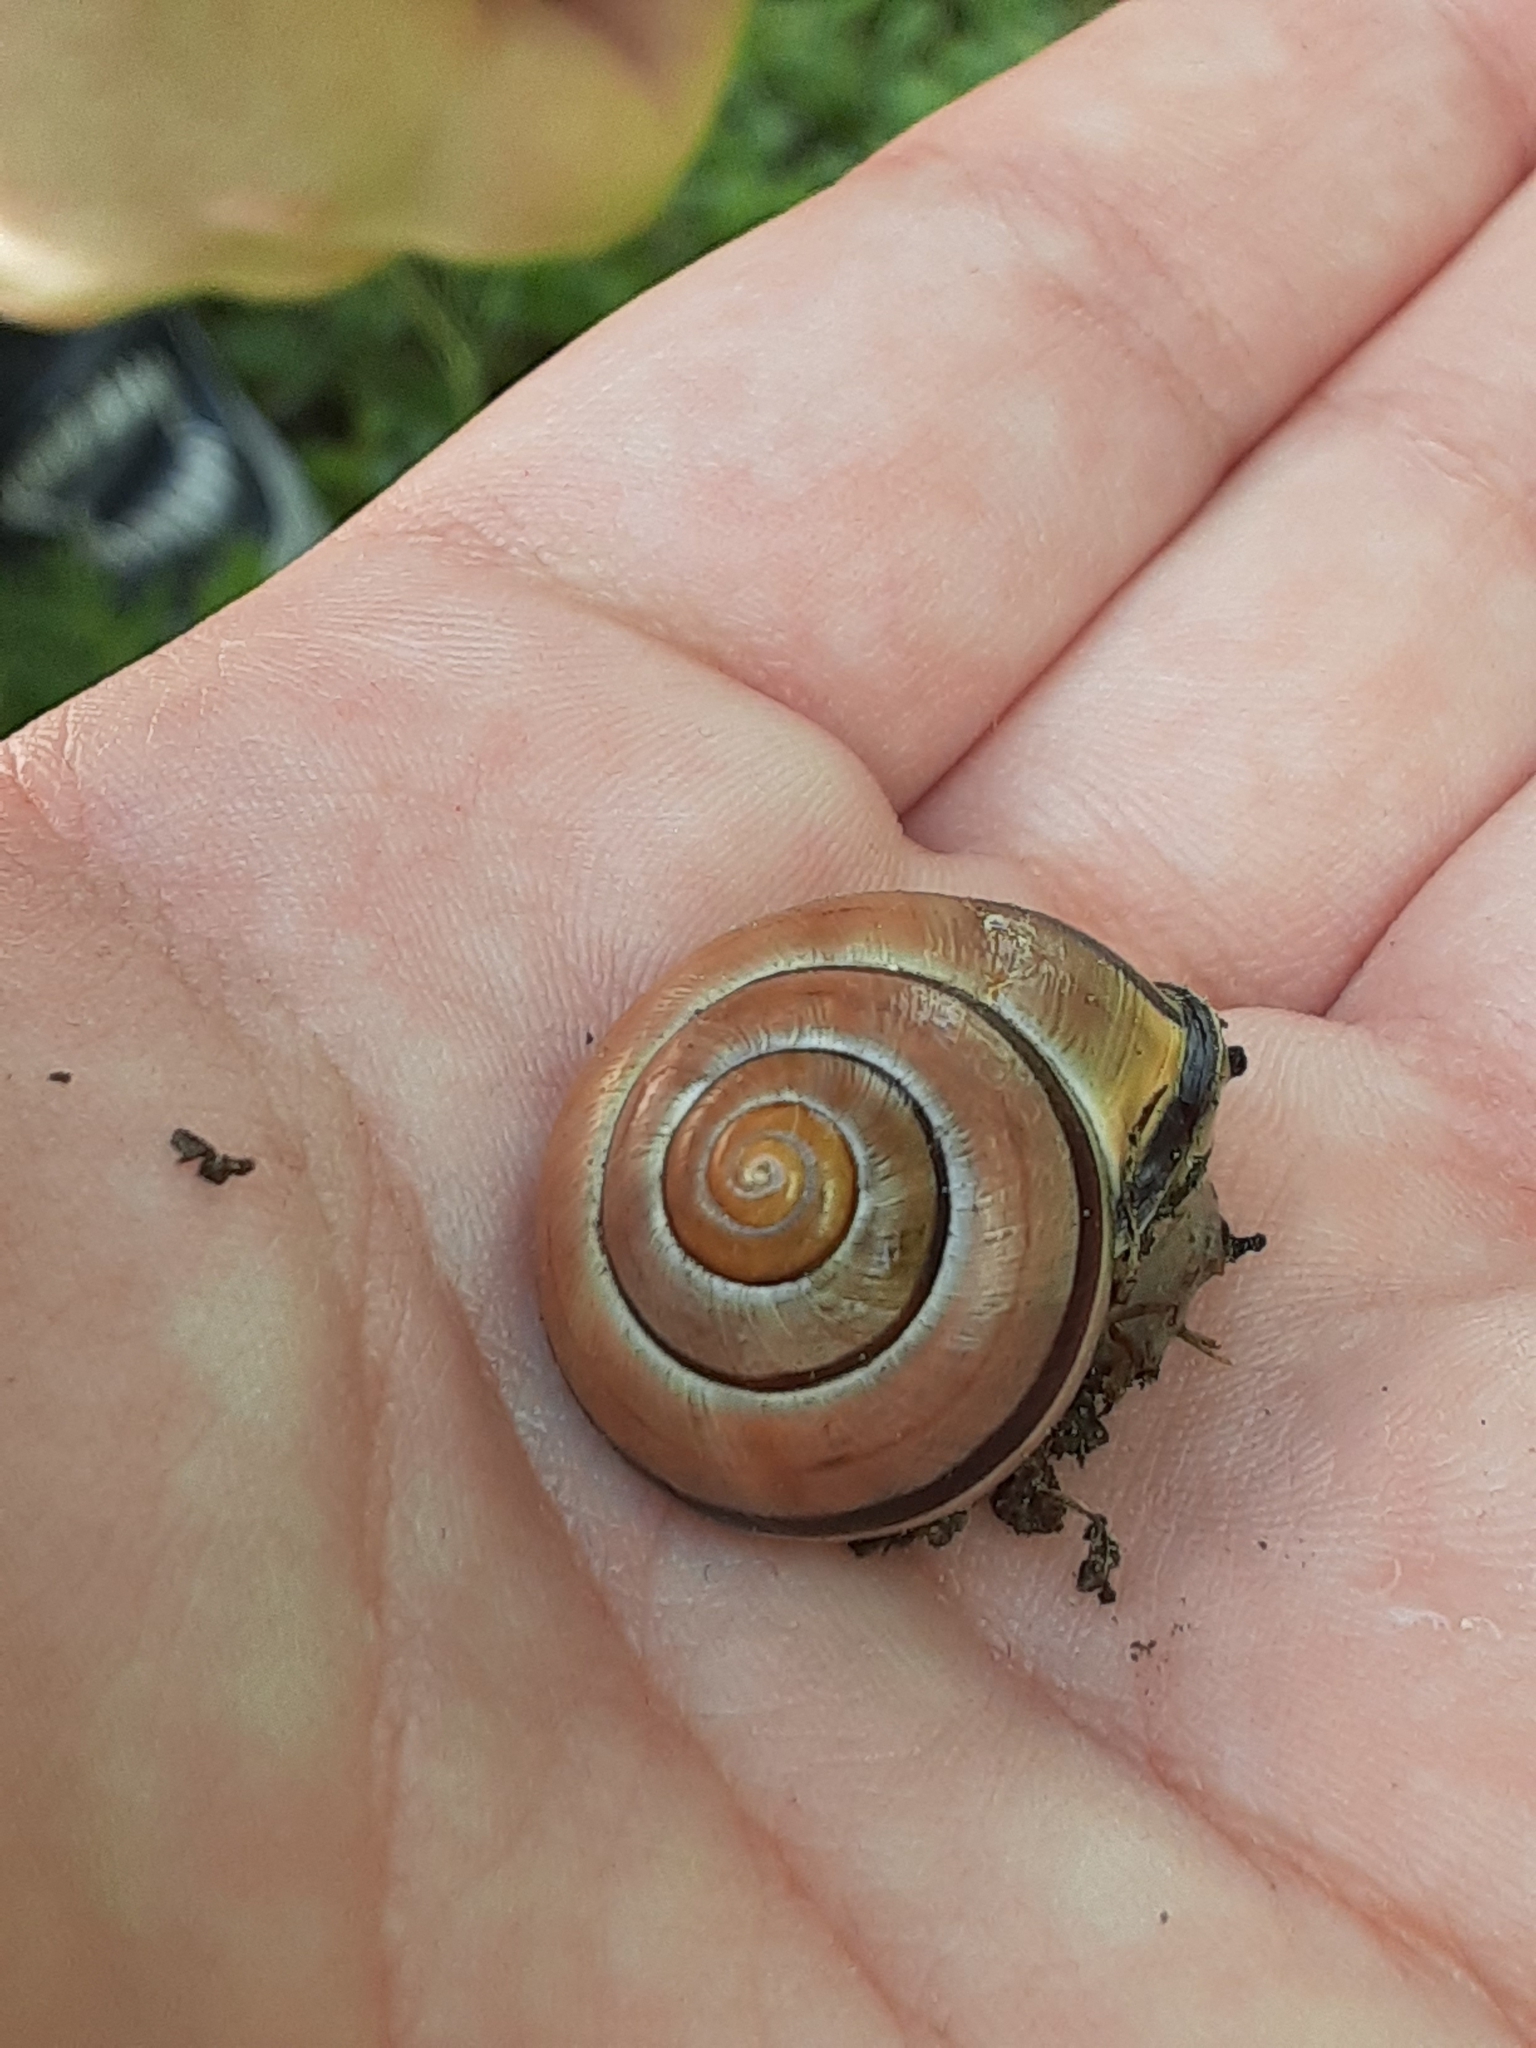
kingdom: Animalia
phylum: Mollusca
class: Gastropoda
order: Stylommatophora
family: Helicidae
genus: Cepaea
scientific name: Cepaea nemoralis
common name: Grovesnail
